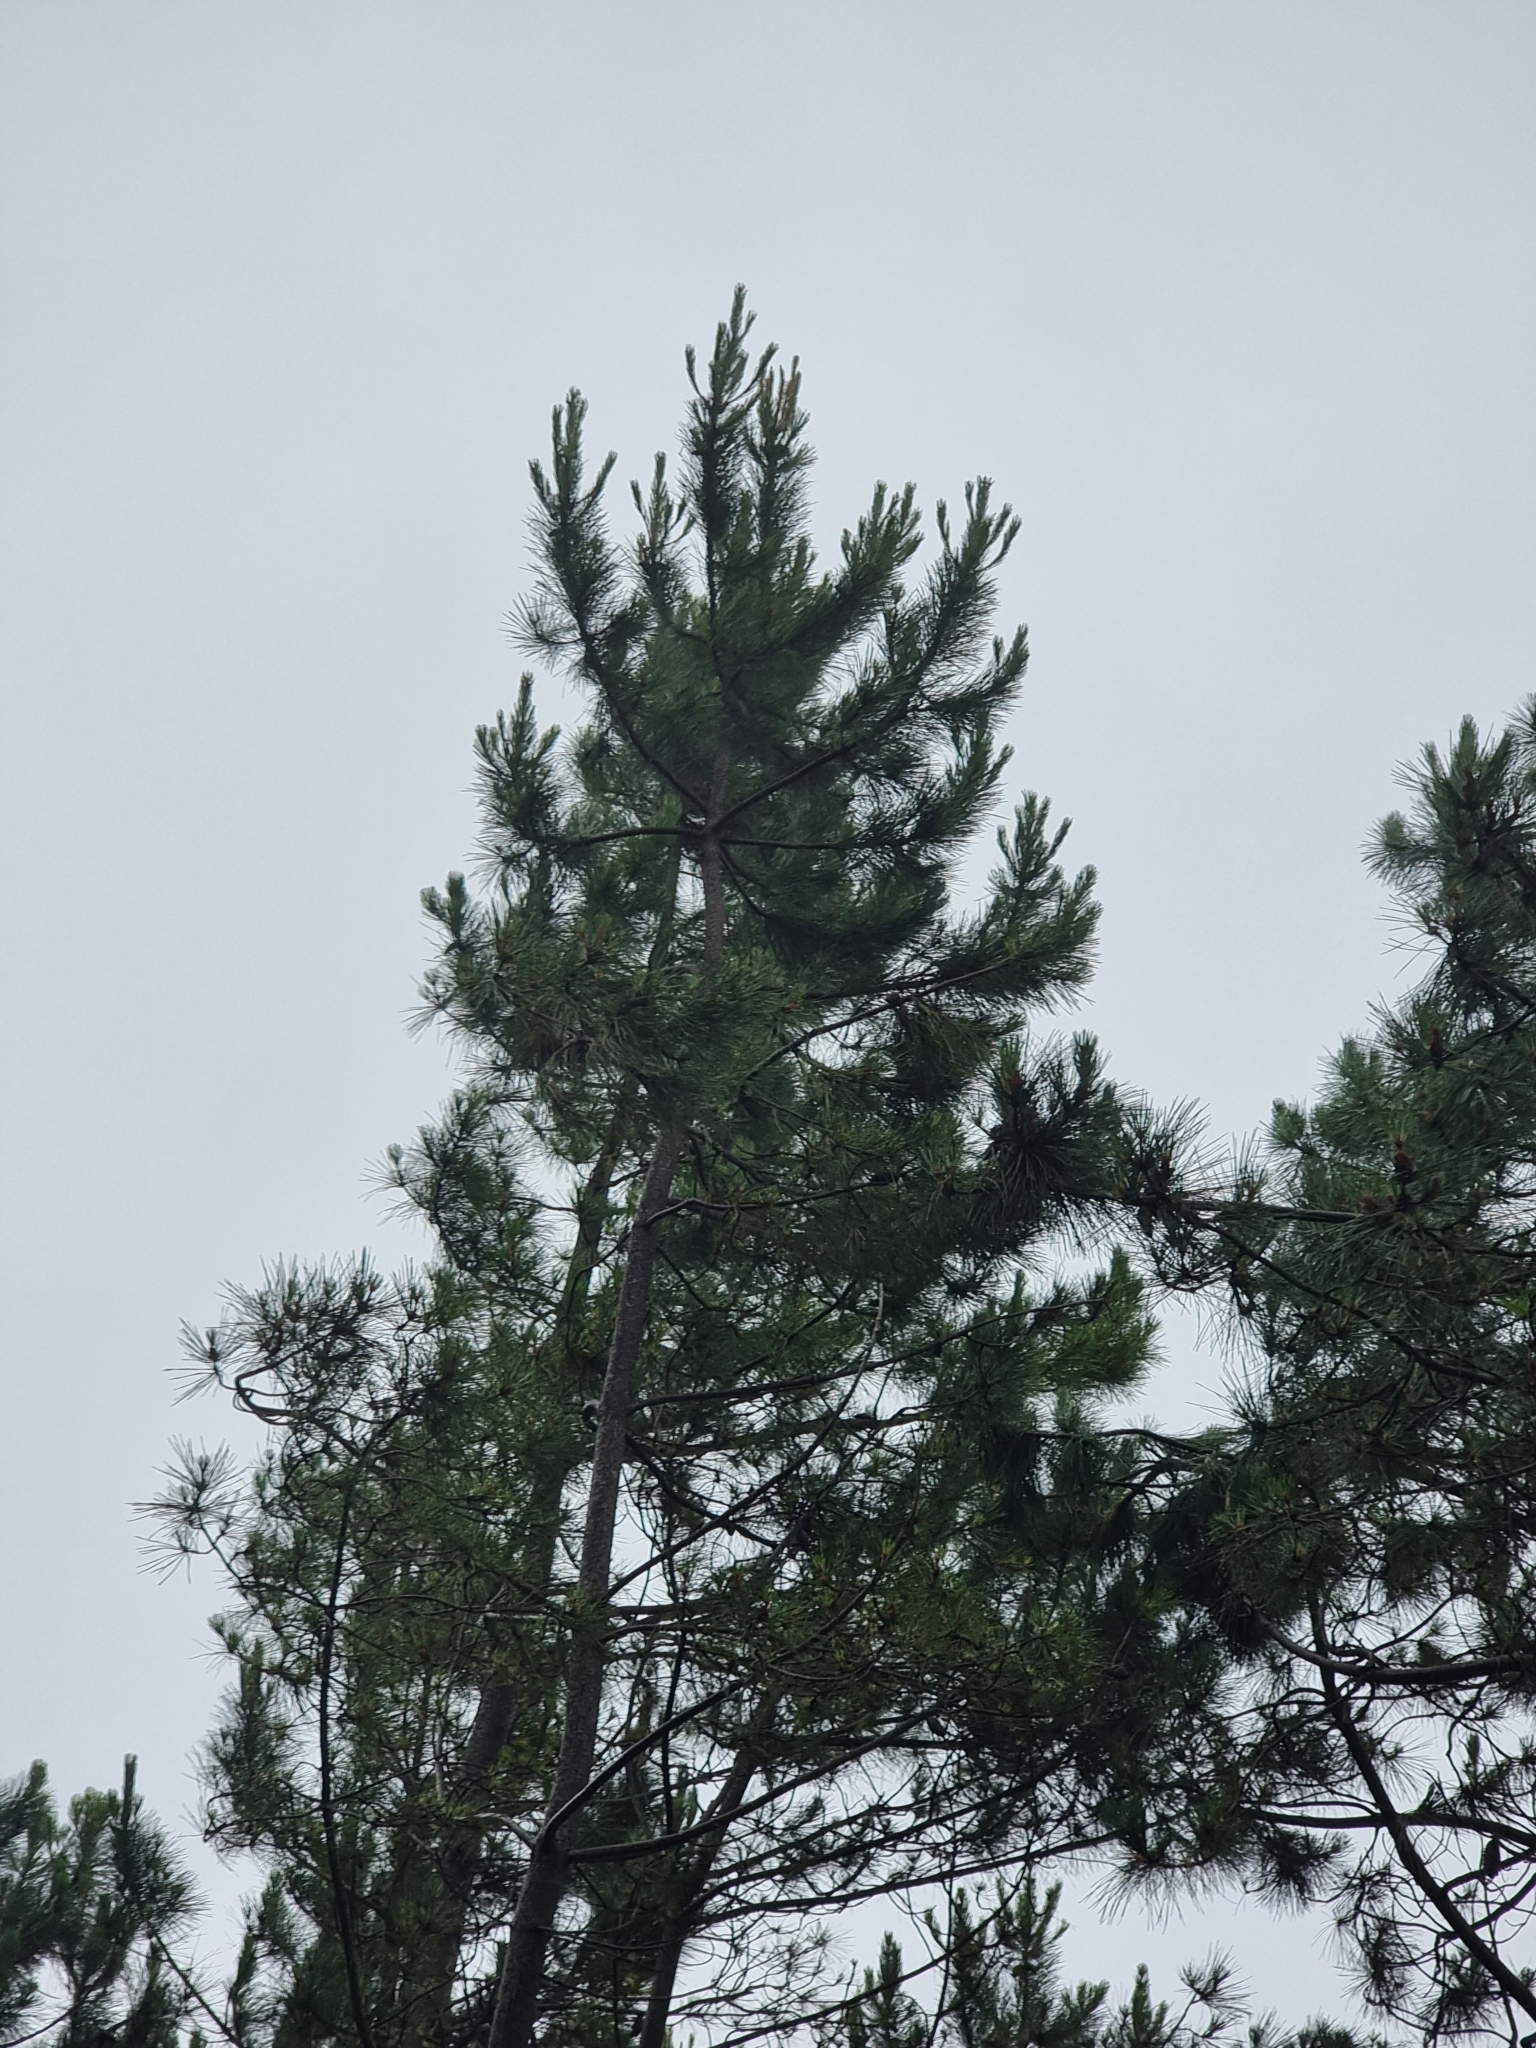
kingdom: Plantae
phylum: Tracheophyta
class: Pinopsida
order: Pinales
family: Pinaceae
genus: Pinus
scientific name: Pinus pinaster
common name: Maritime pine
